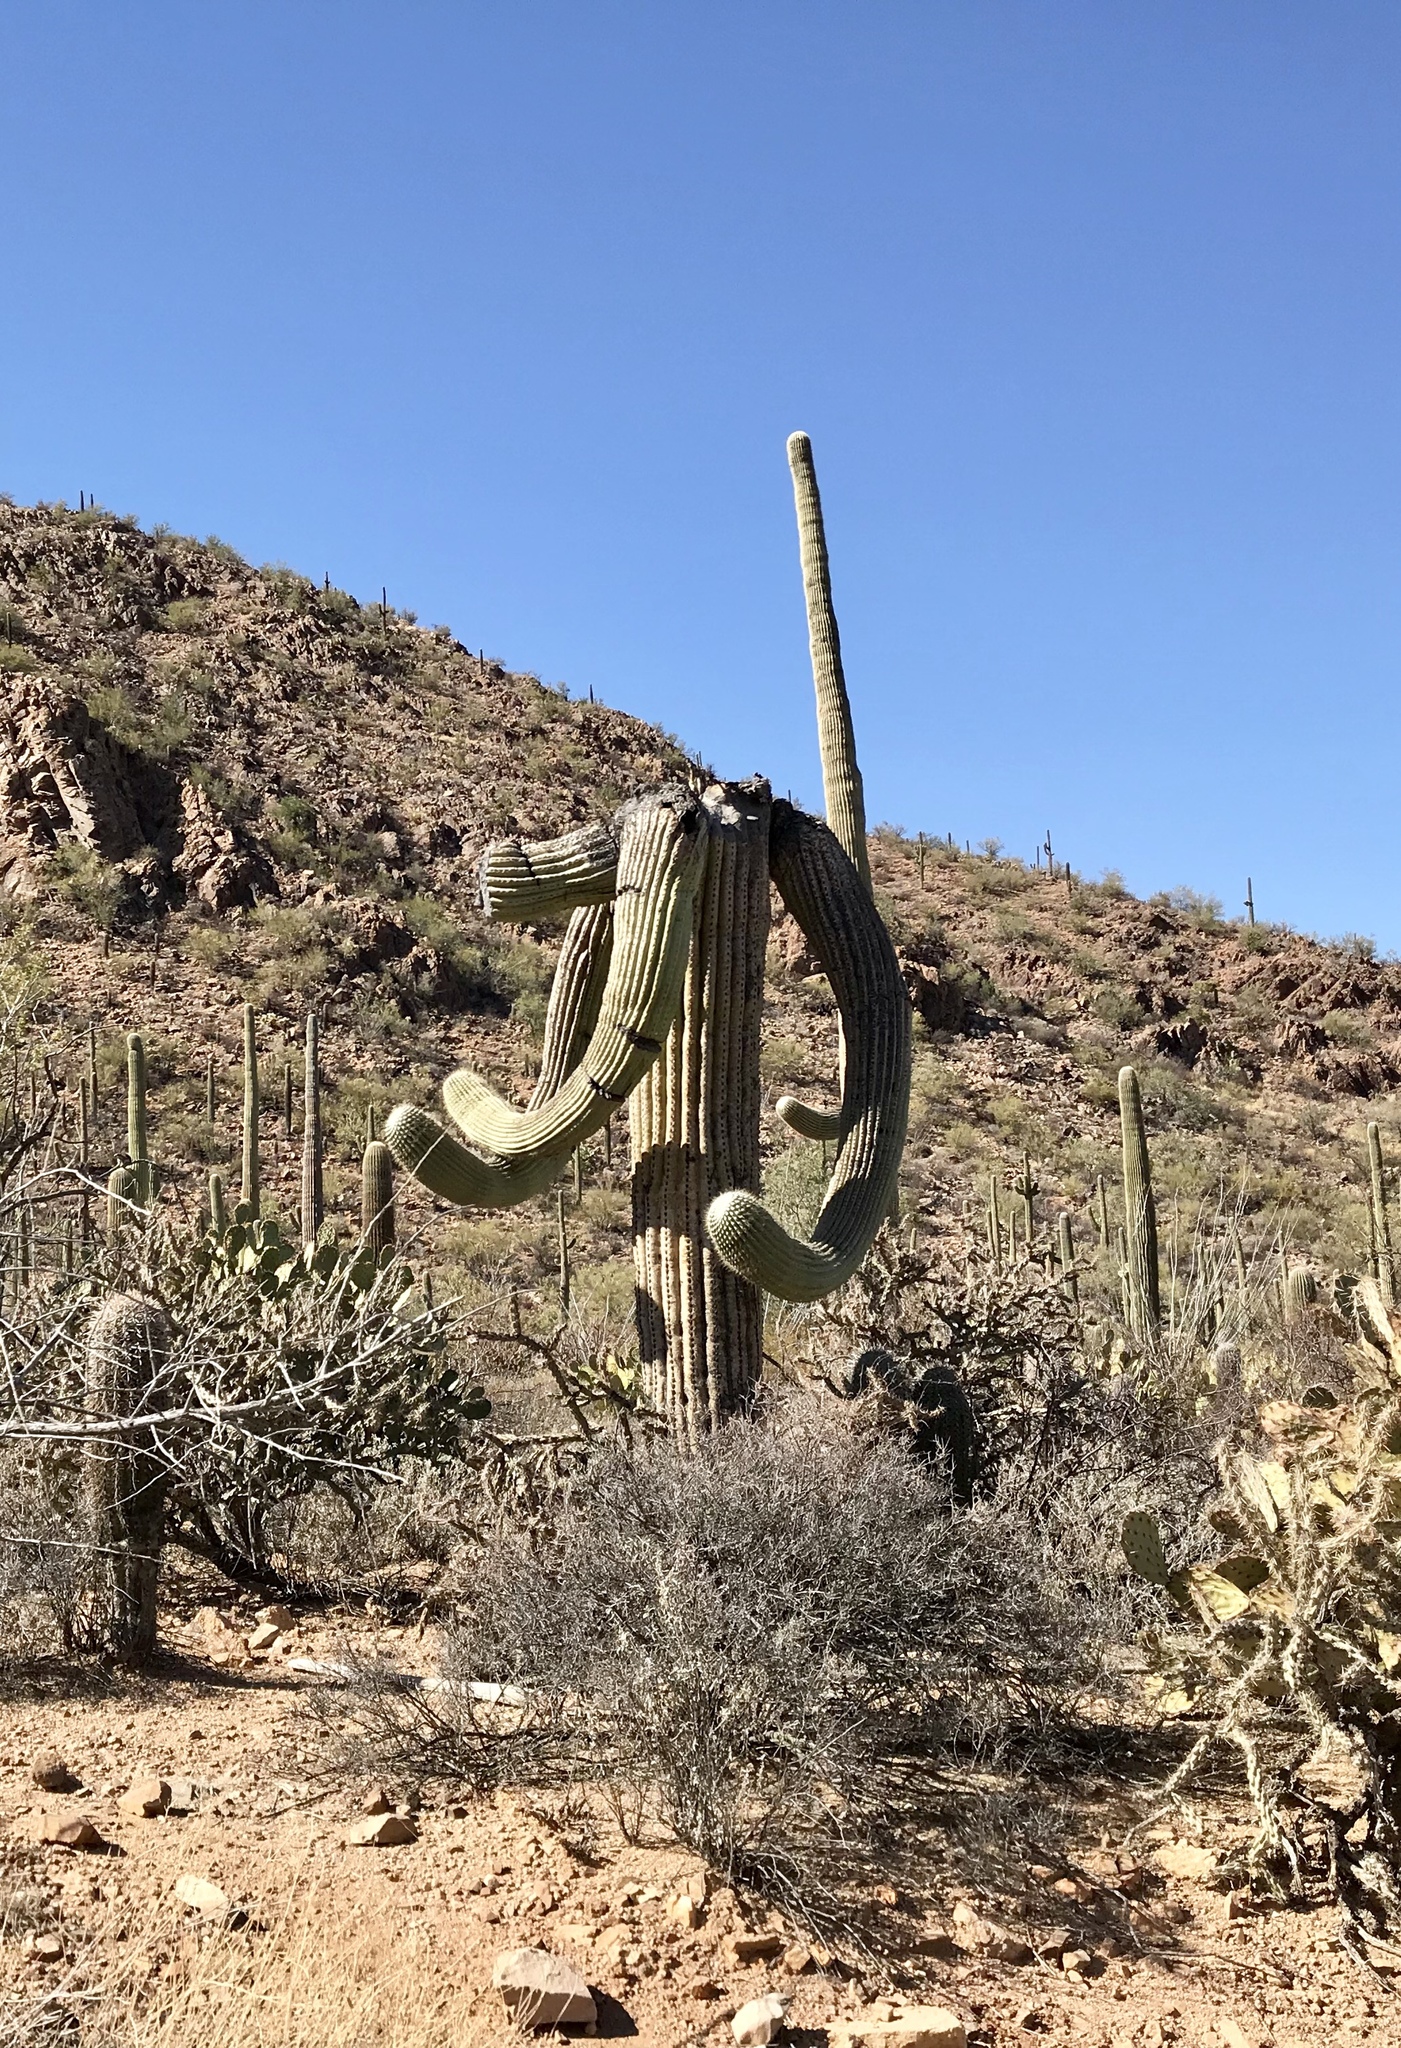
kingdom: Plantae
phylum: Tracheophyta
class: Magnoliopsida
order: Caryophyllales
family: Cactaceae
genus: Carnegiea
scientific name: Carnegiea gigantea
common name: Saguaro
